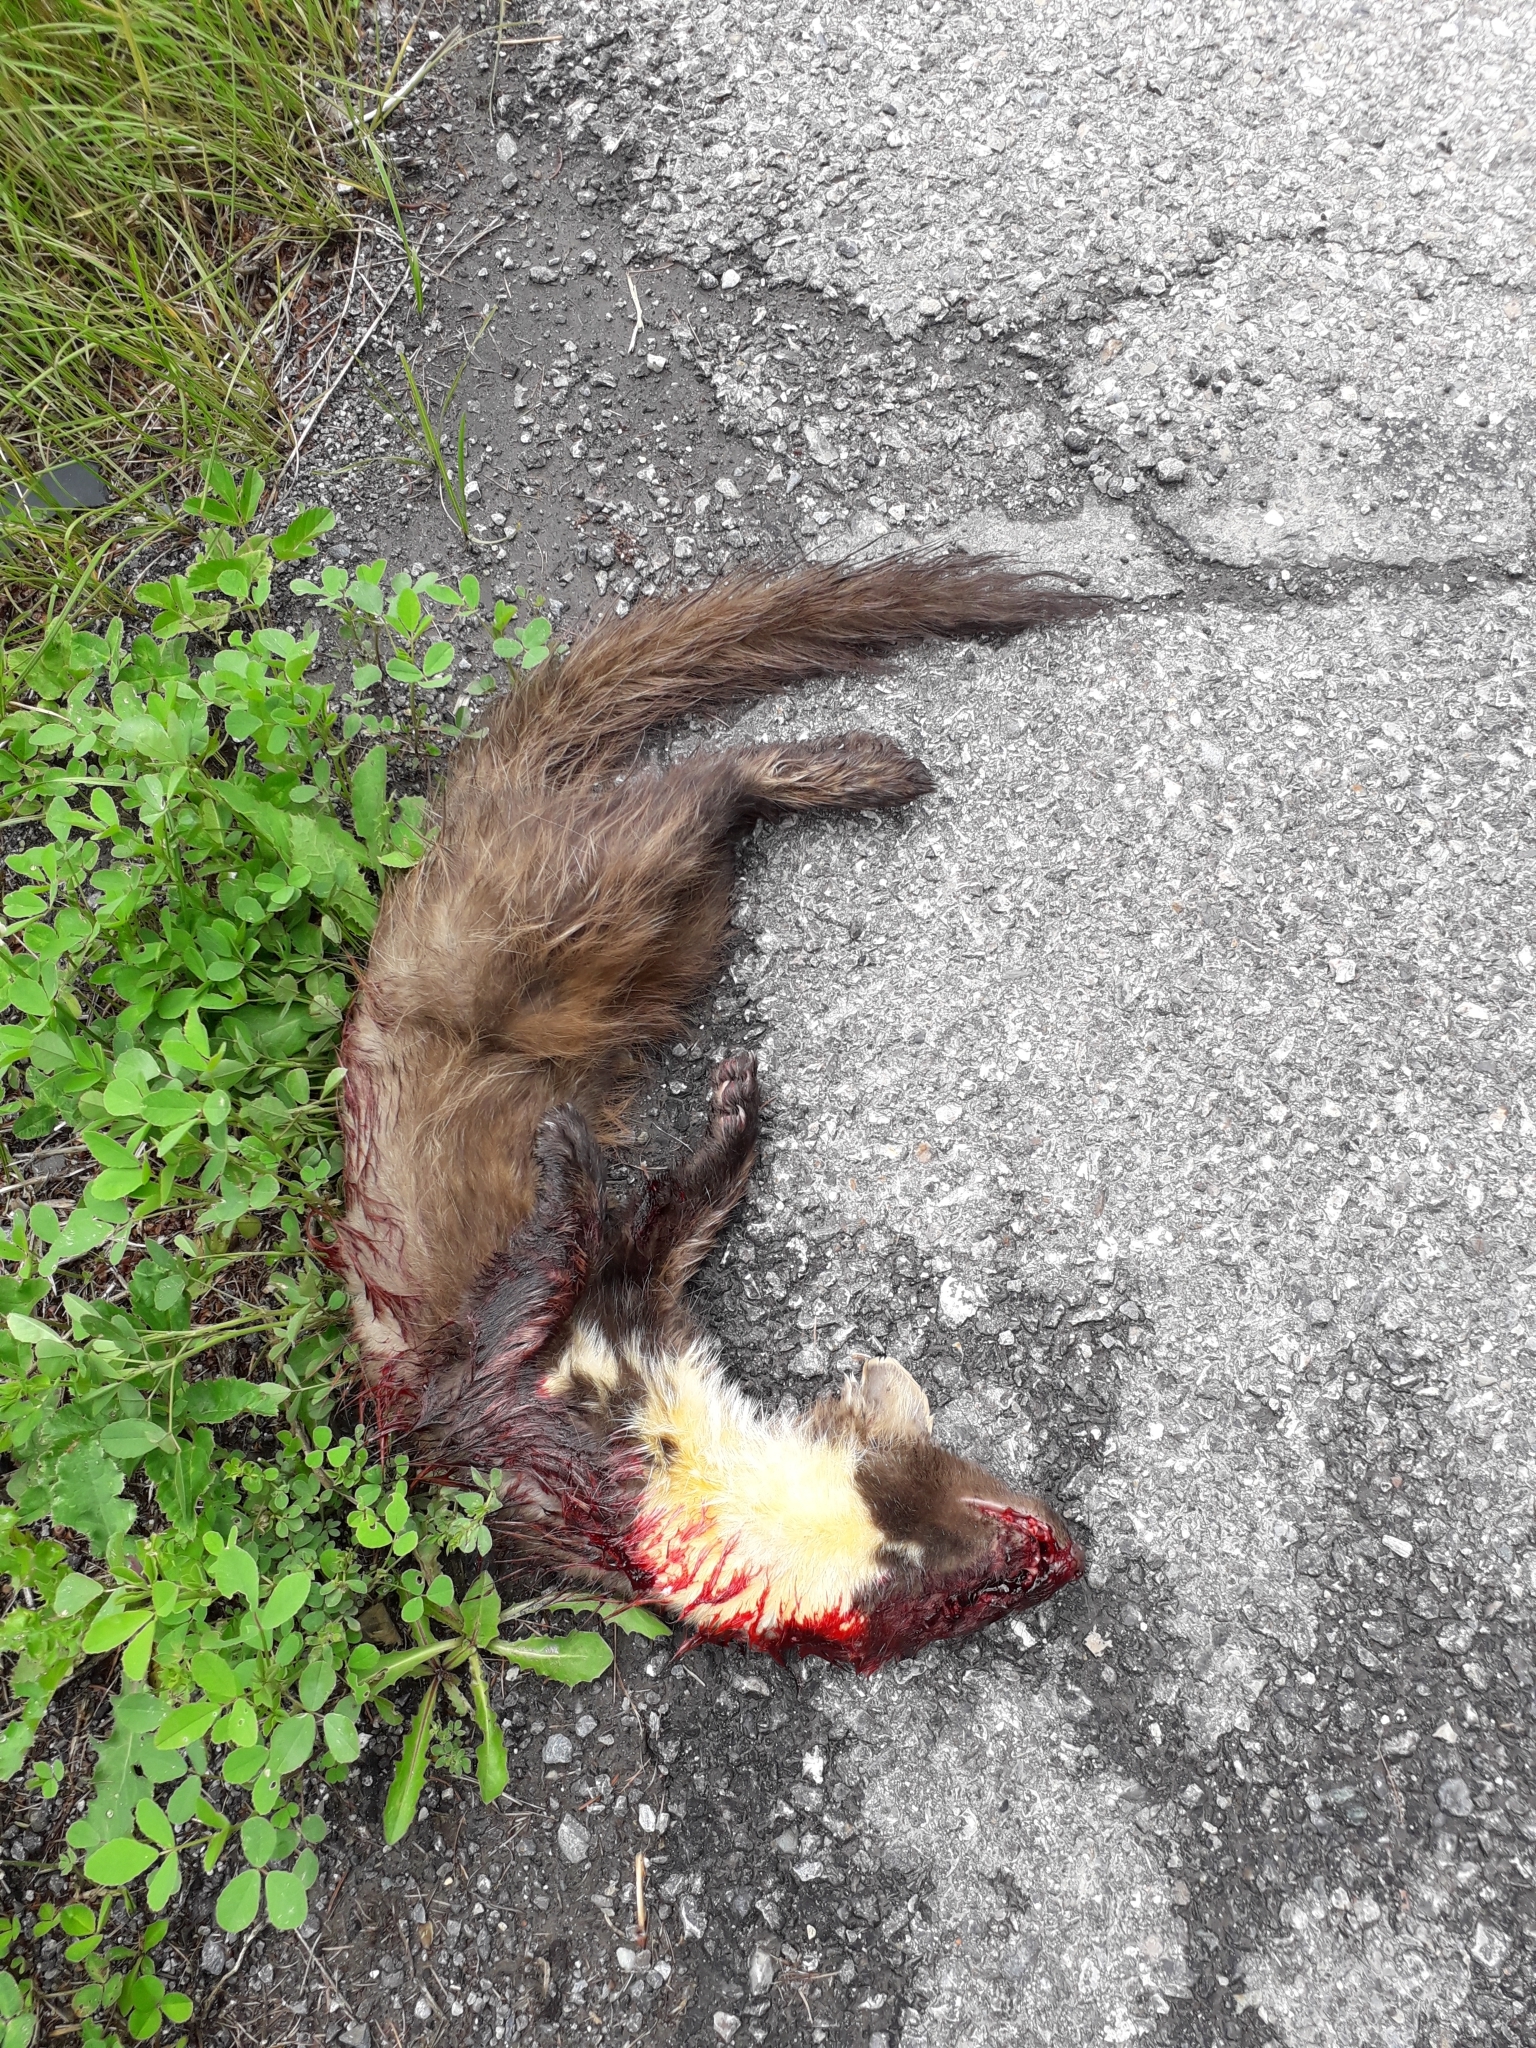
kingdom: Animalia
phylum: Chordata
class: Mammalia
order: Carnivora
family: Mustelidae
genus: Martes
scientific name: Martes martes
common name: European pine marten
